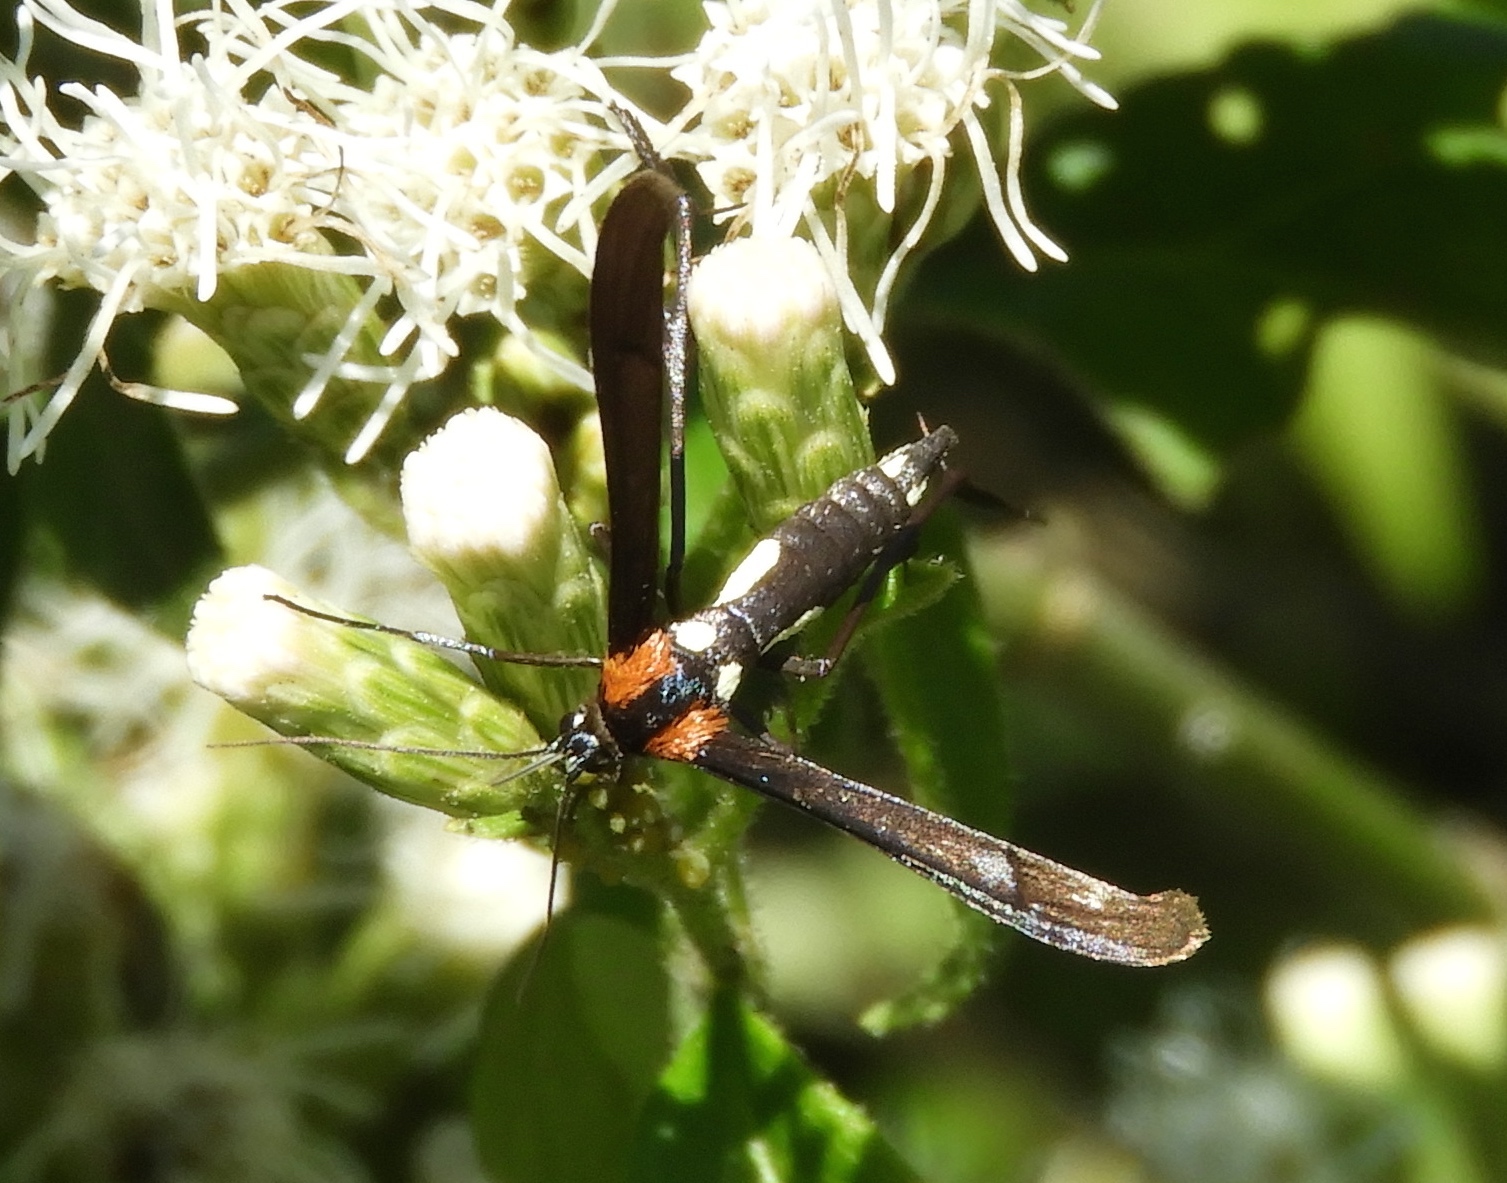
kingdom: Animalia
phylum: Arthropoda
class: Insecta
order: Lepidoptera
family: Pterophoridae
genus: Hellinsia
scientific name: Hellinsia chamelai
